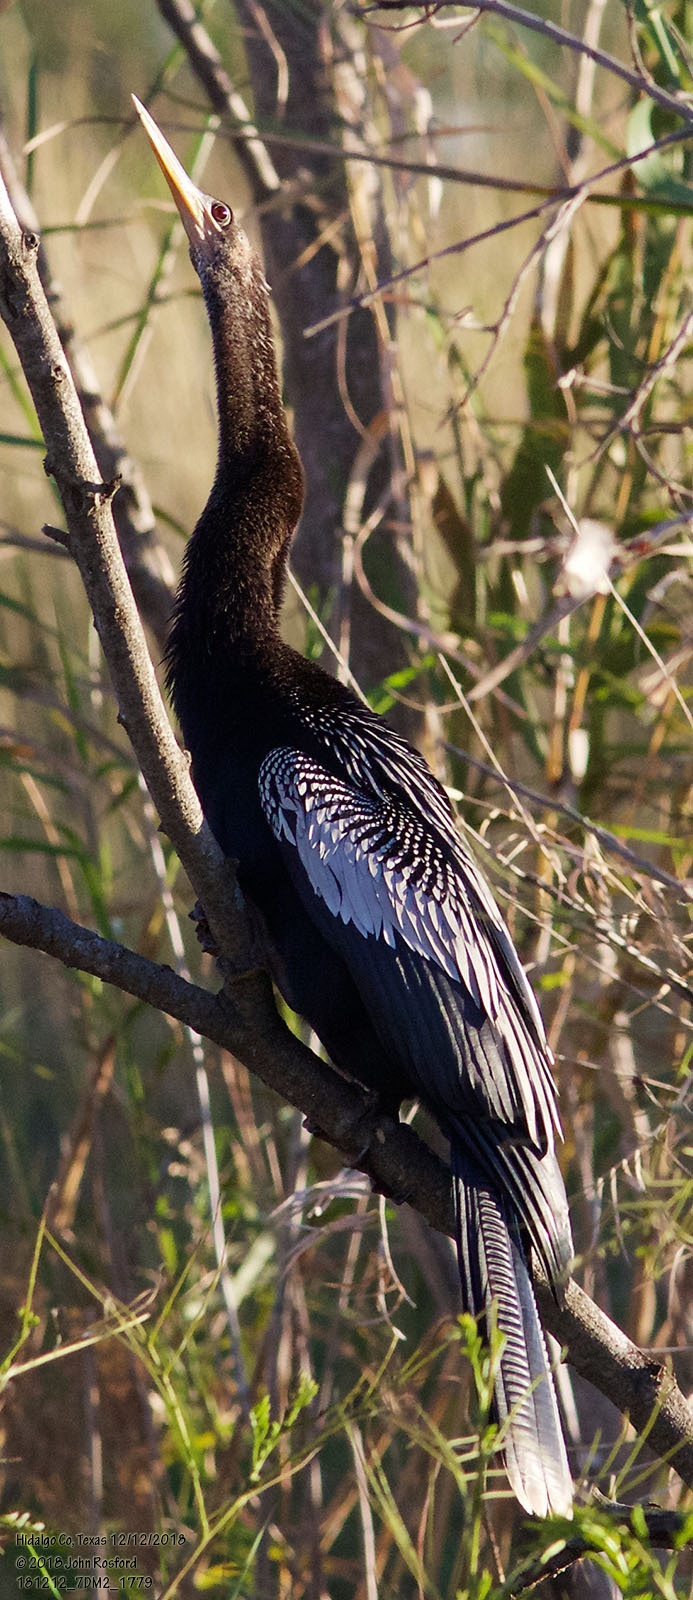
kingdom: Animalia
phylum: Chordata
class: Aves
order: Suliformes
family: Anhingidae
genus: Anhinga
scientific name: Anhinga anhinga
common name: Anhinga
